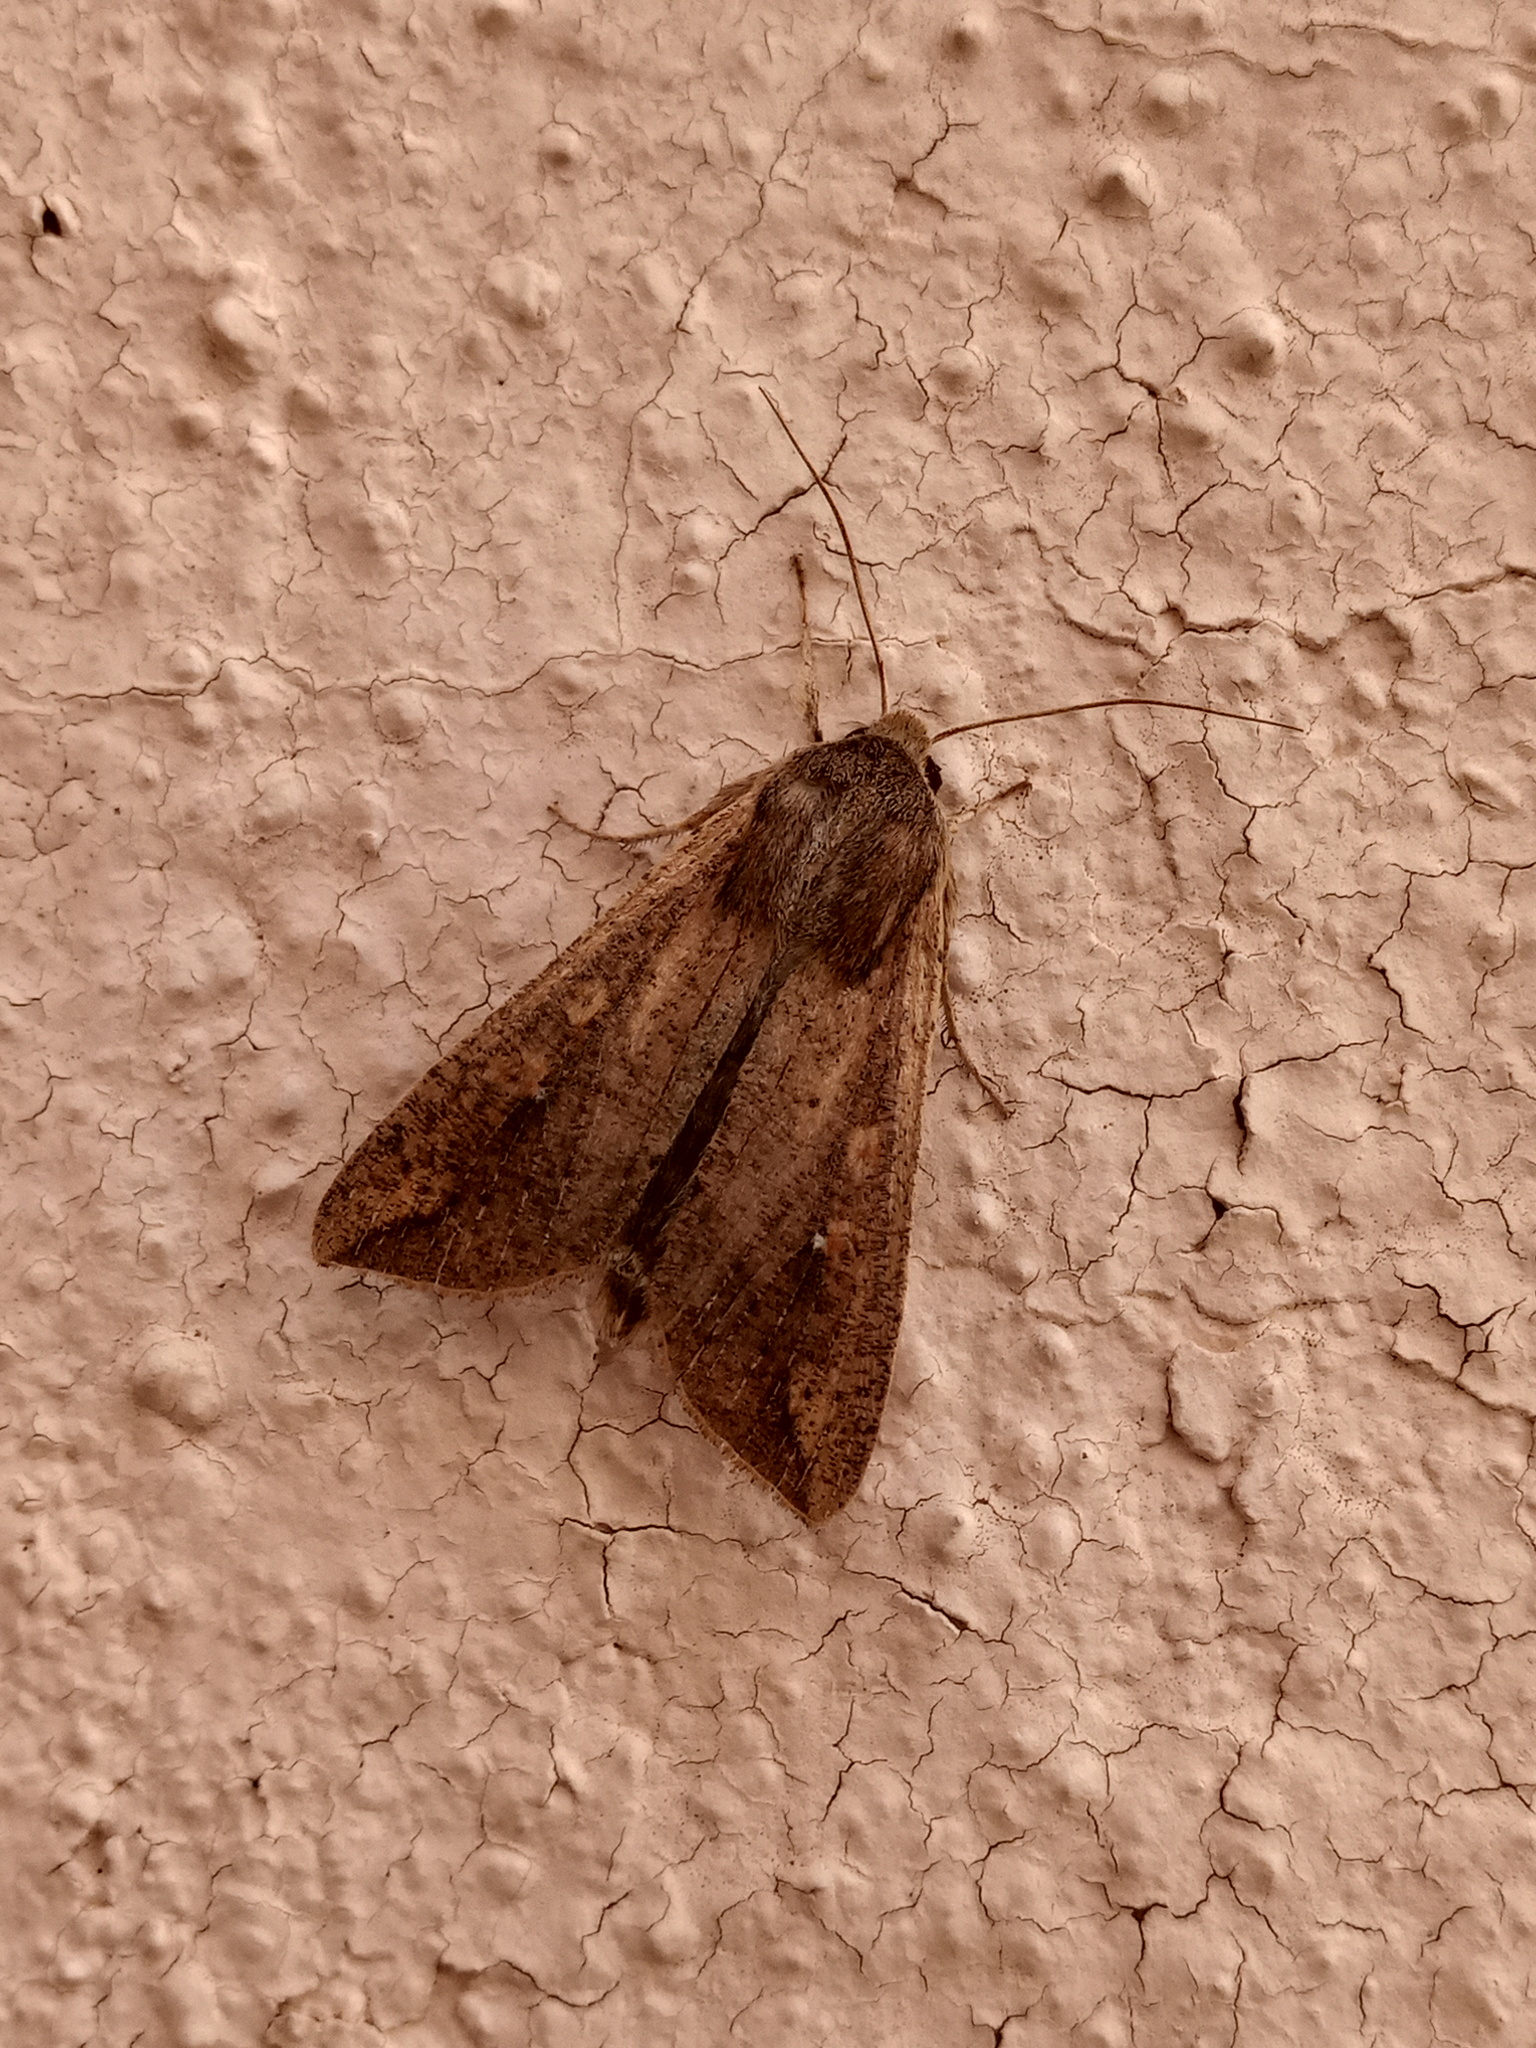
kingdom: Animalia
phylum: Arthropoda
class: Insecta
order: Lepidoptera
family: Noctuidae
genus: Mythimna
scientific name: Mythimna unipuncta
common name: White-speck
